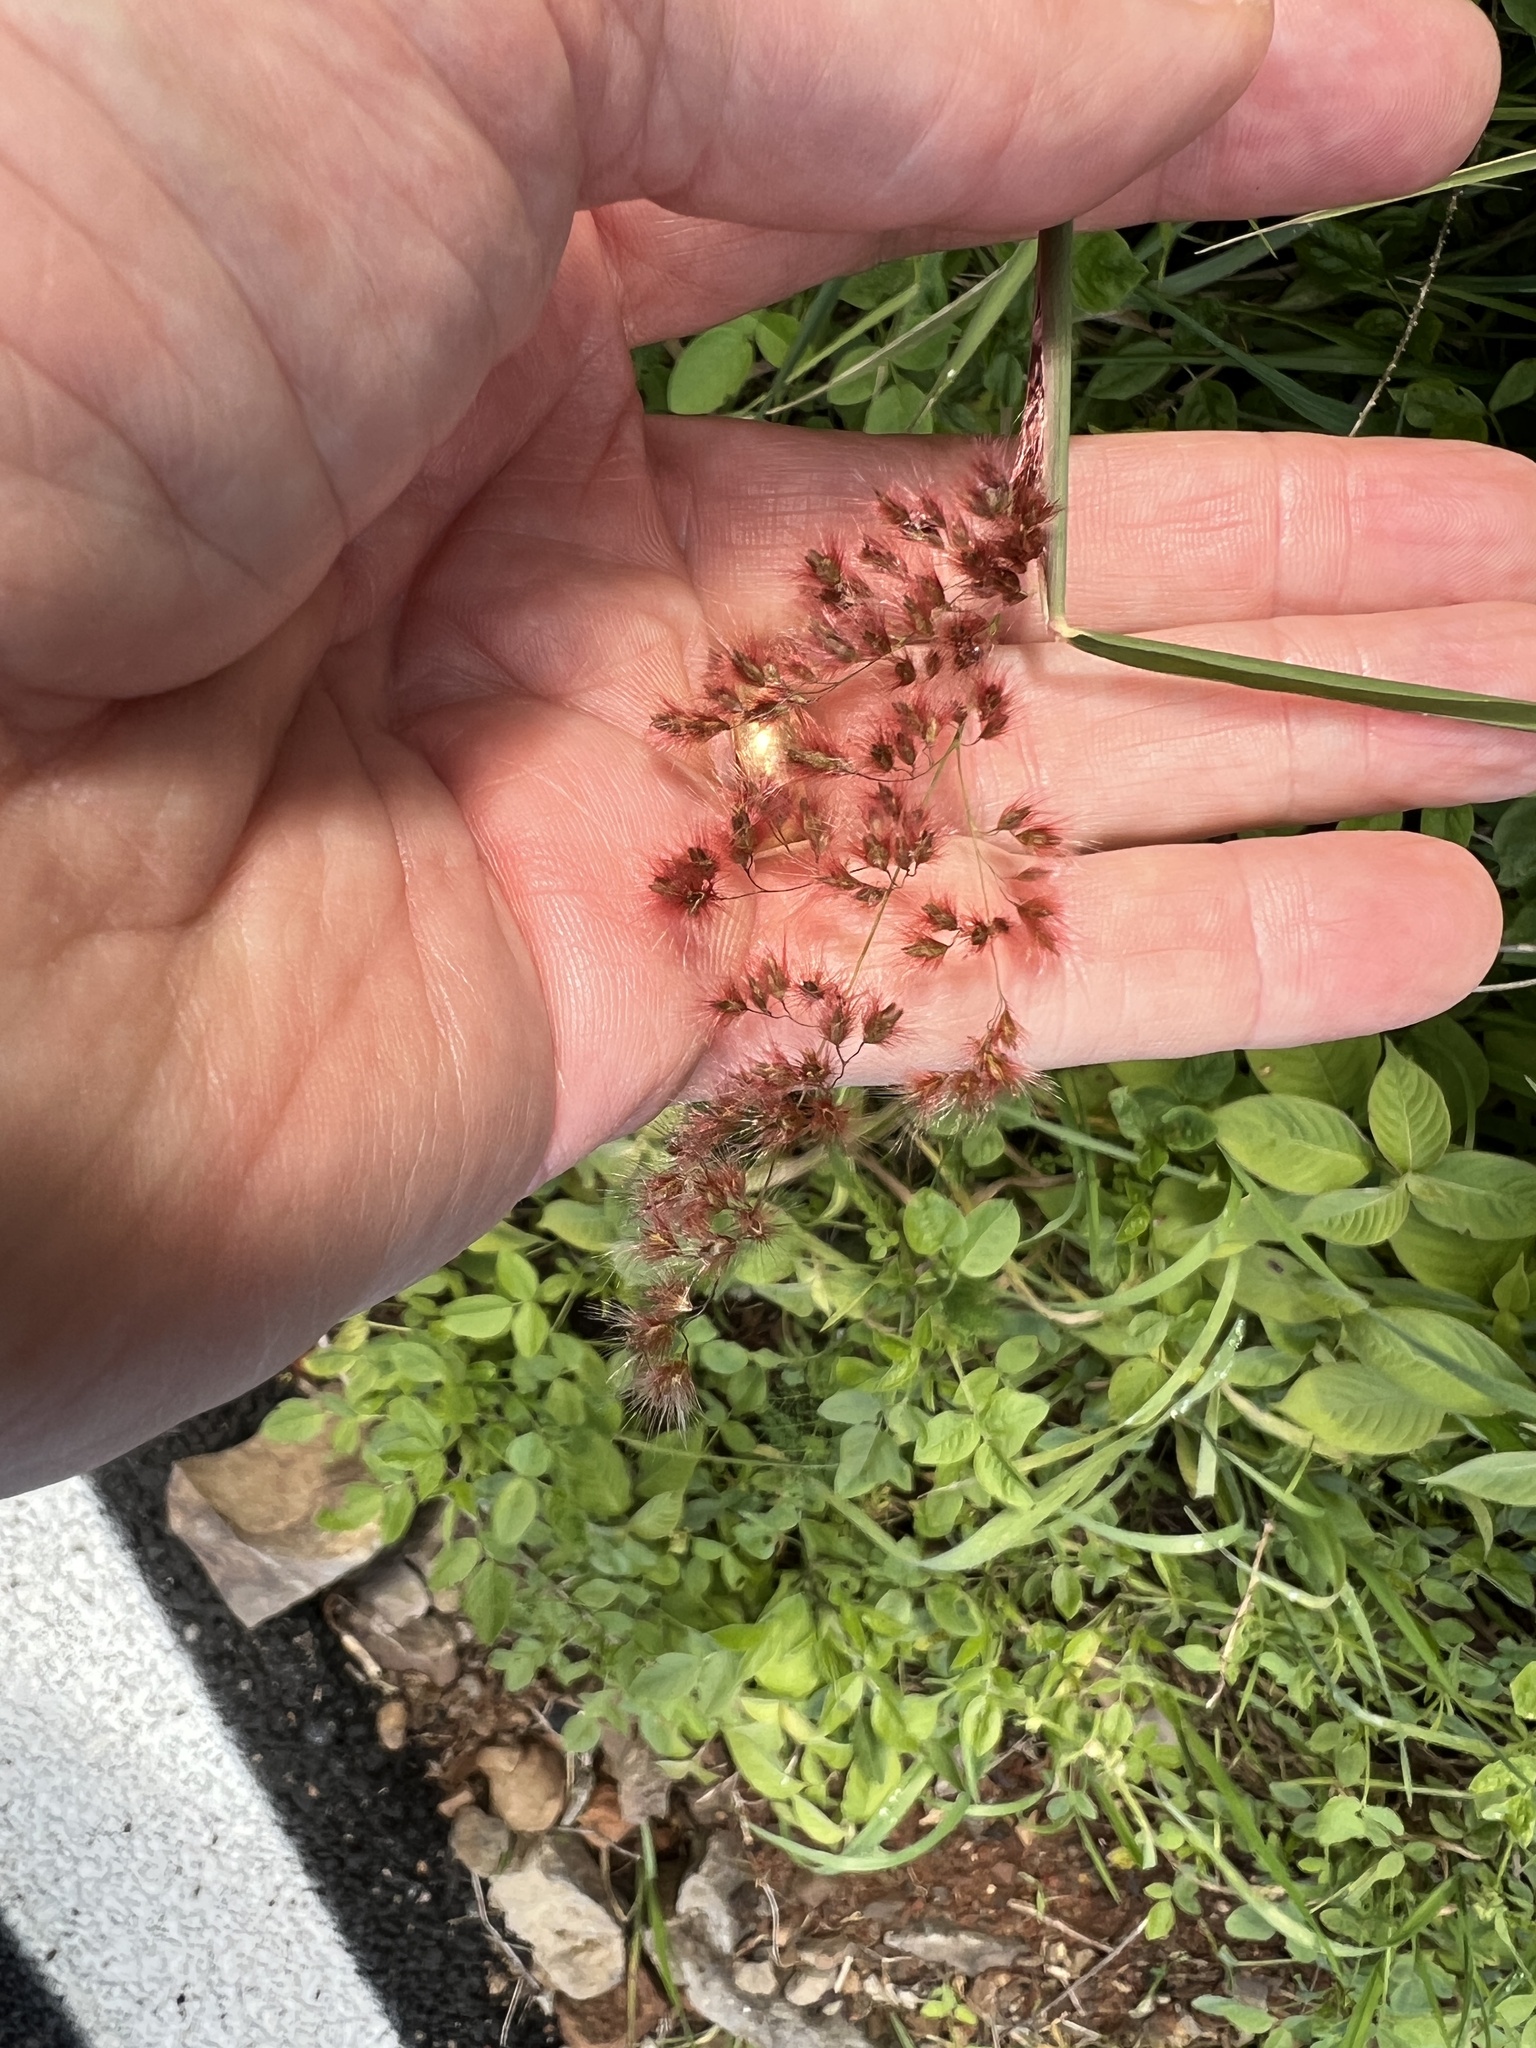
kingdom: Plantae
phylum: Tracheophyta
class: Liliopsida
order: Poales
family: Poaceae
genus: Melinis
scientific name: Melinis repens
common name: Rose natal grass
